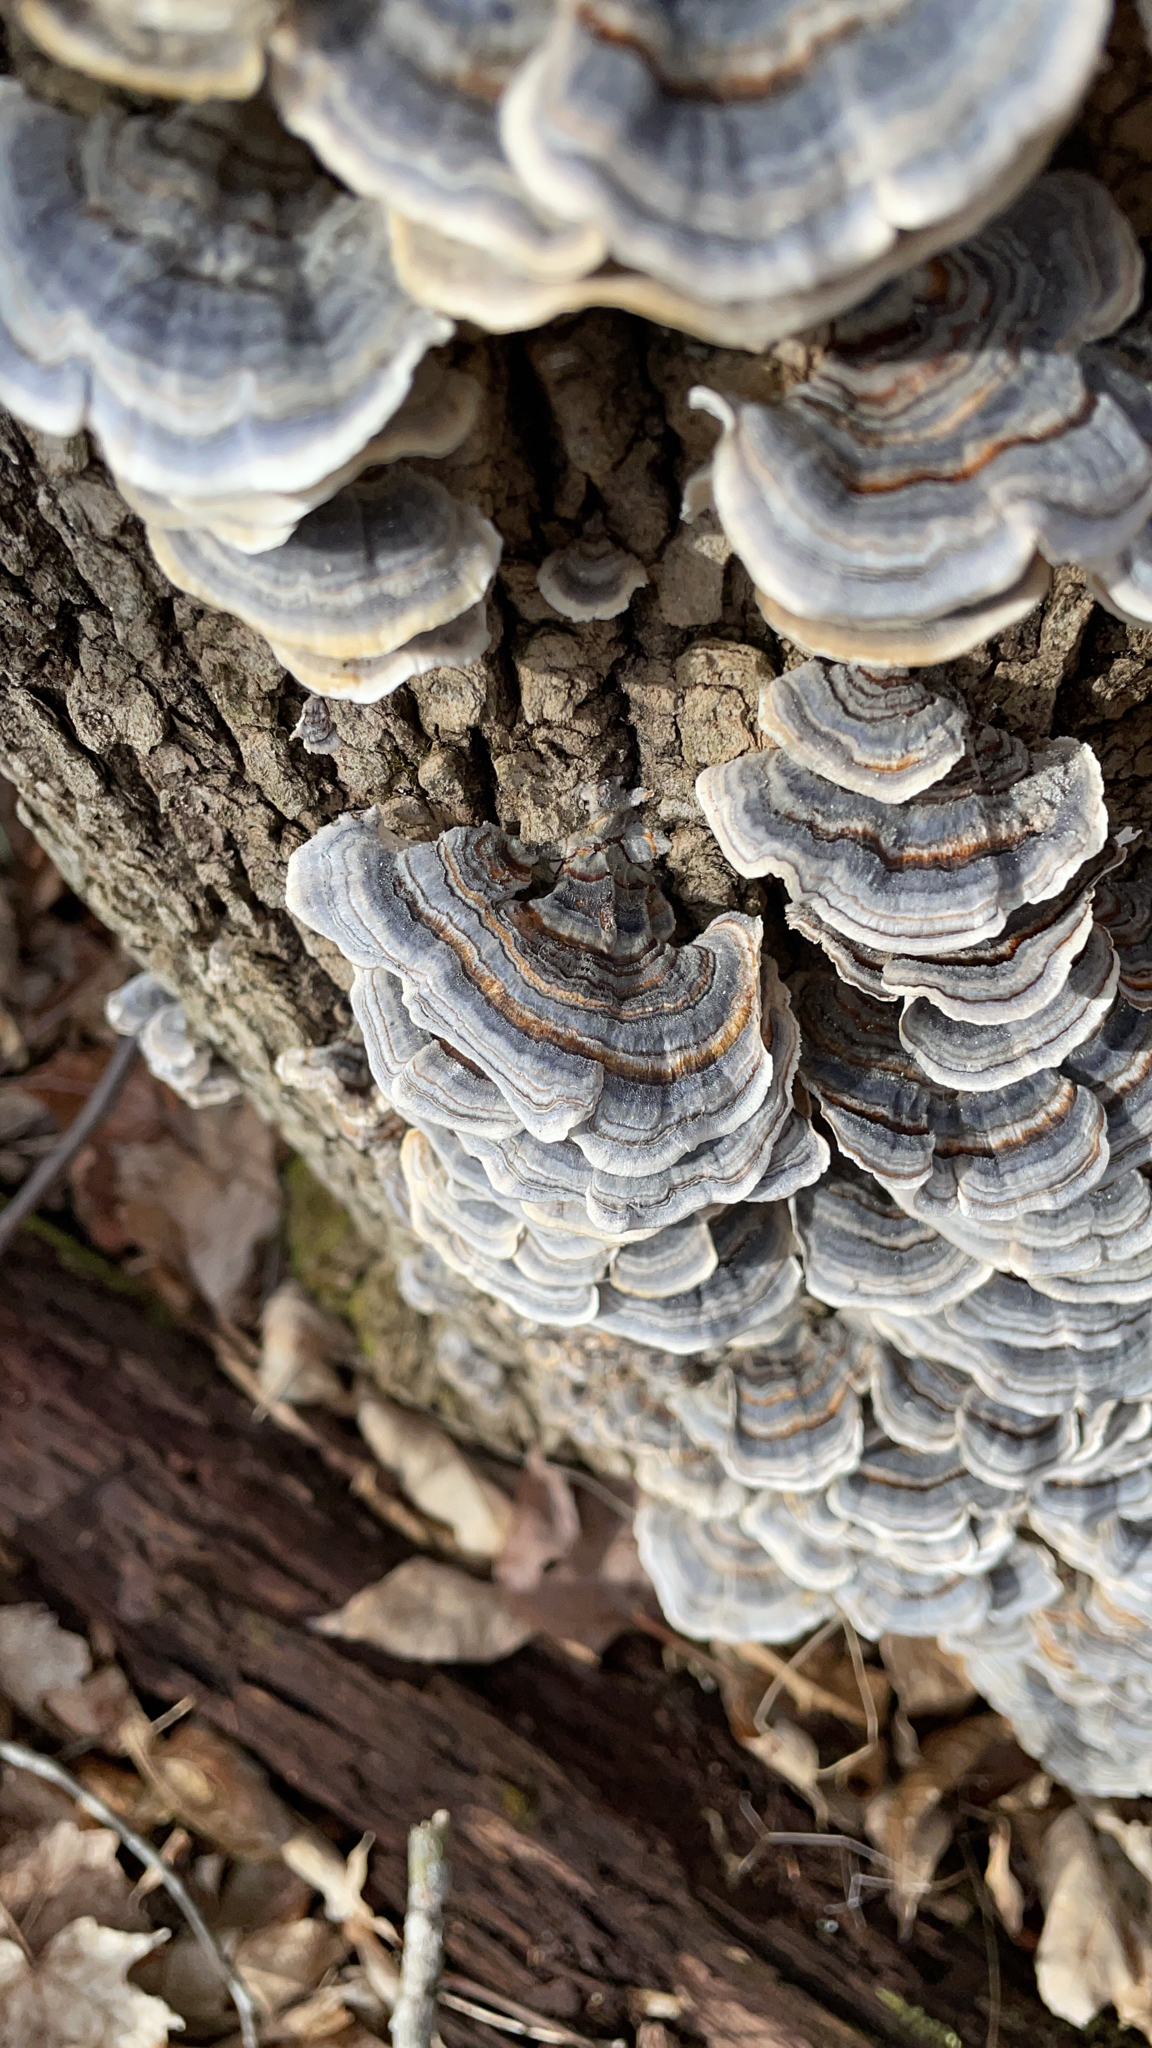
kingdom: Fungi
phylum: Basidiomycota
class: Agaricomycetes
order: Polyporales
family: Polyporaceae
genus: Trametes
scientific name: Trametes versicolor
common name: Turkeytail
